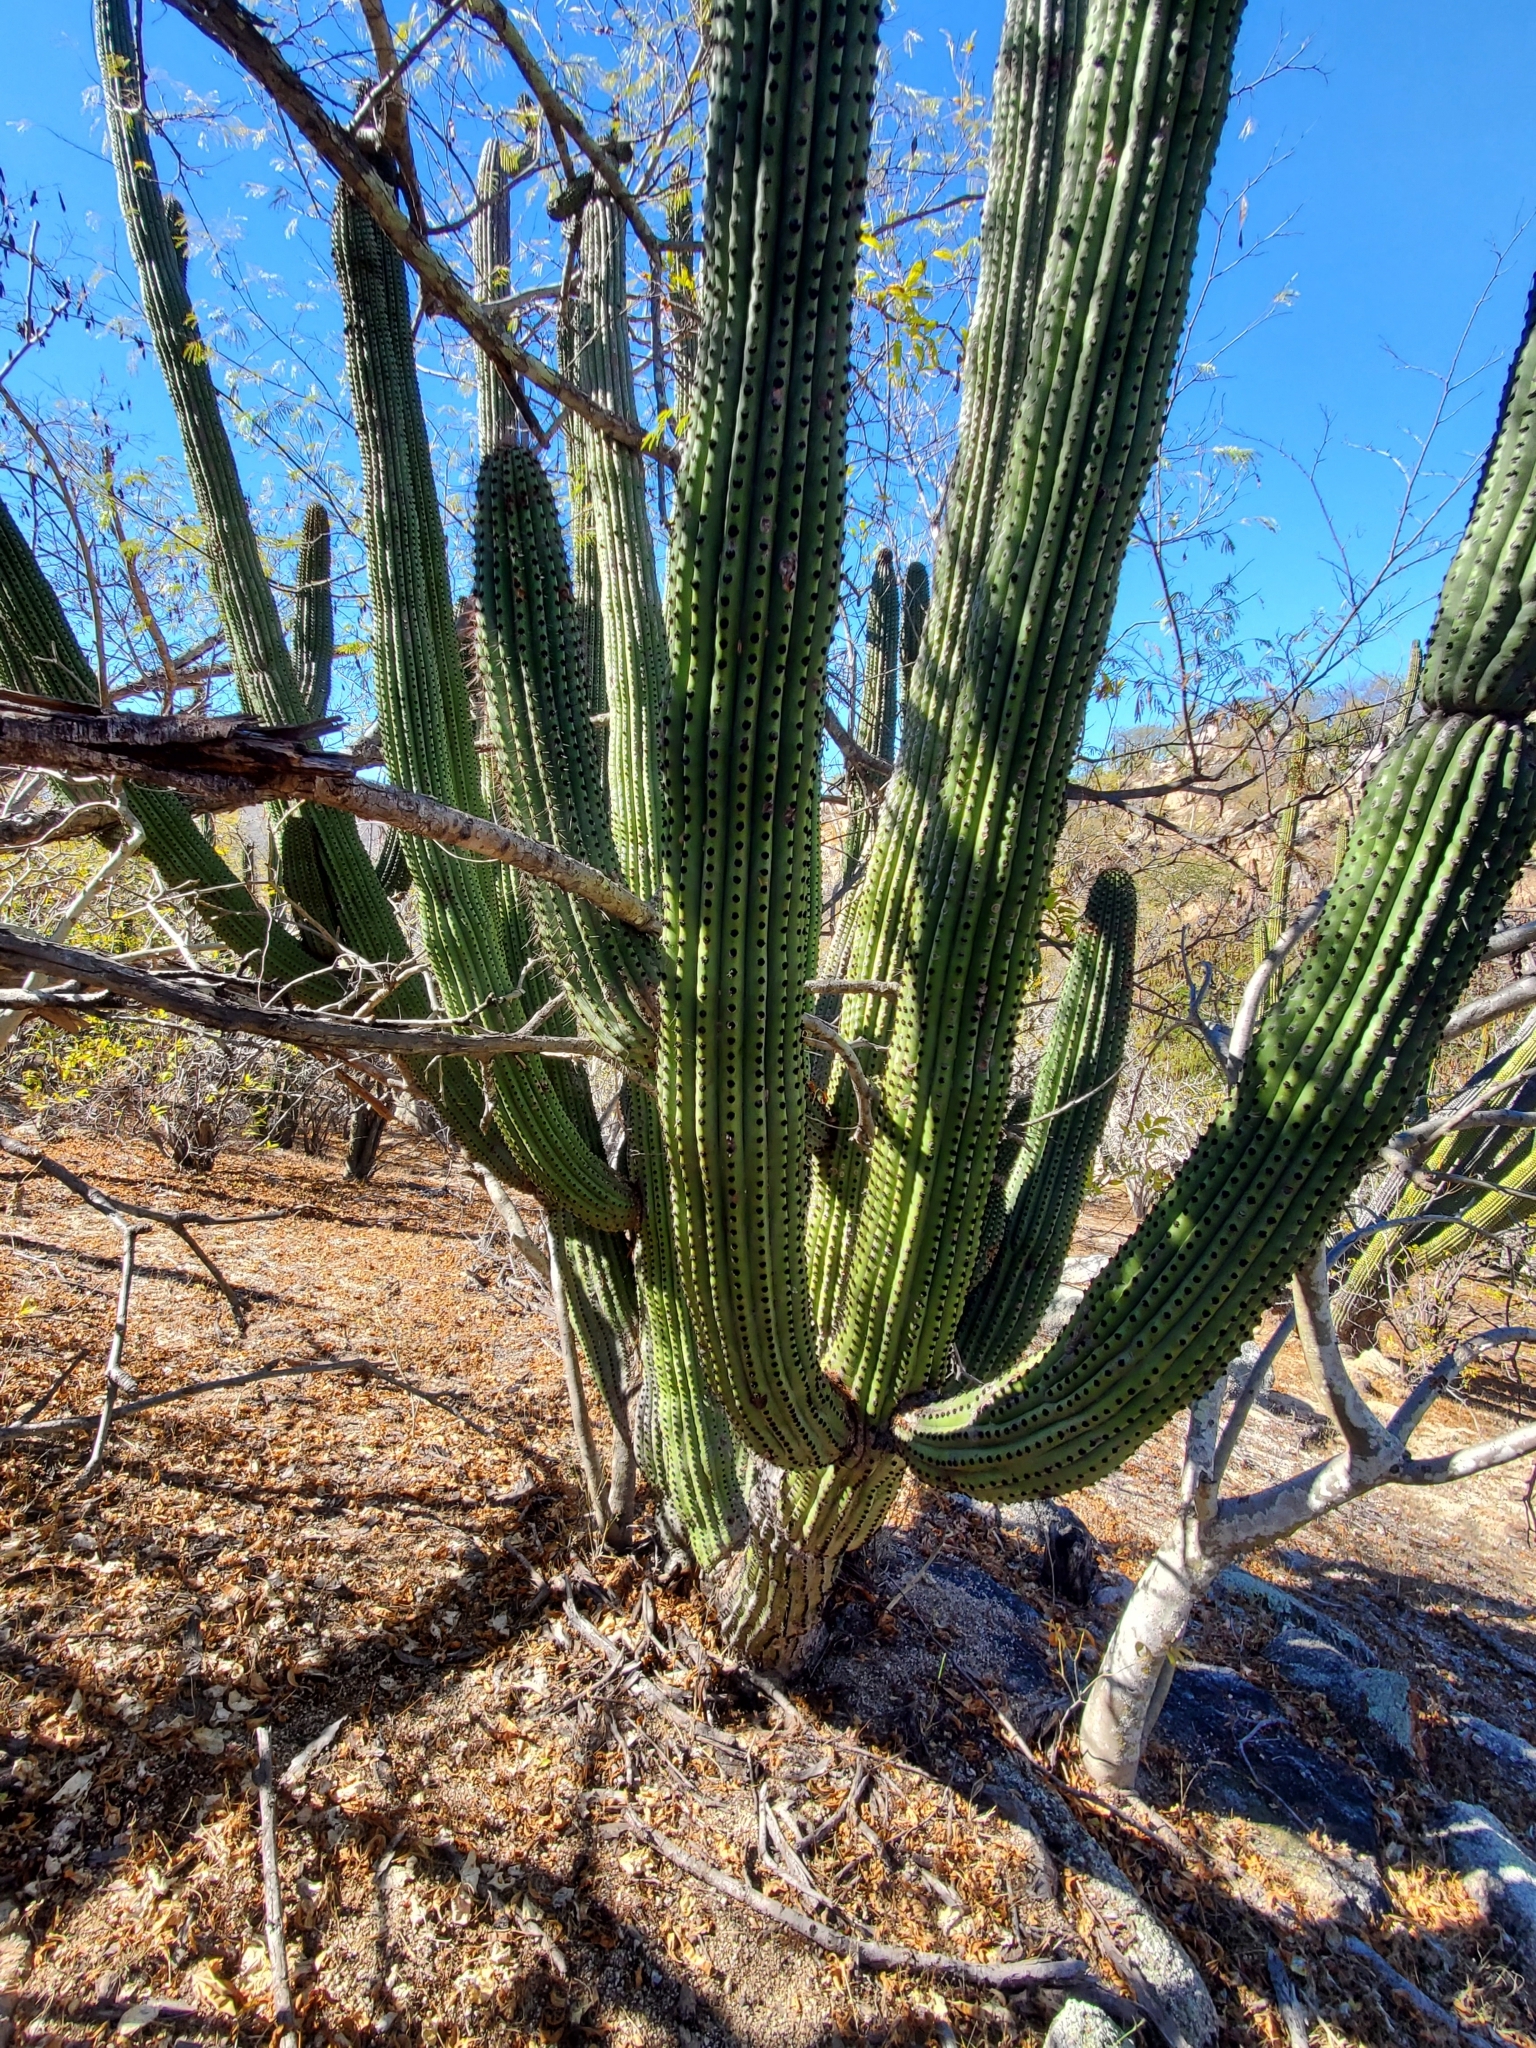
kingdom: Plantae
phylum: Tracheophyta
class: Magnoliopsida
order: Caryophyllales
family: Cactaceae
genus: Stenocereus
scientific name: Stenocereus thurberi
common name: Organ pipe cactus
